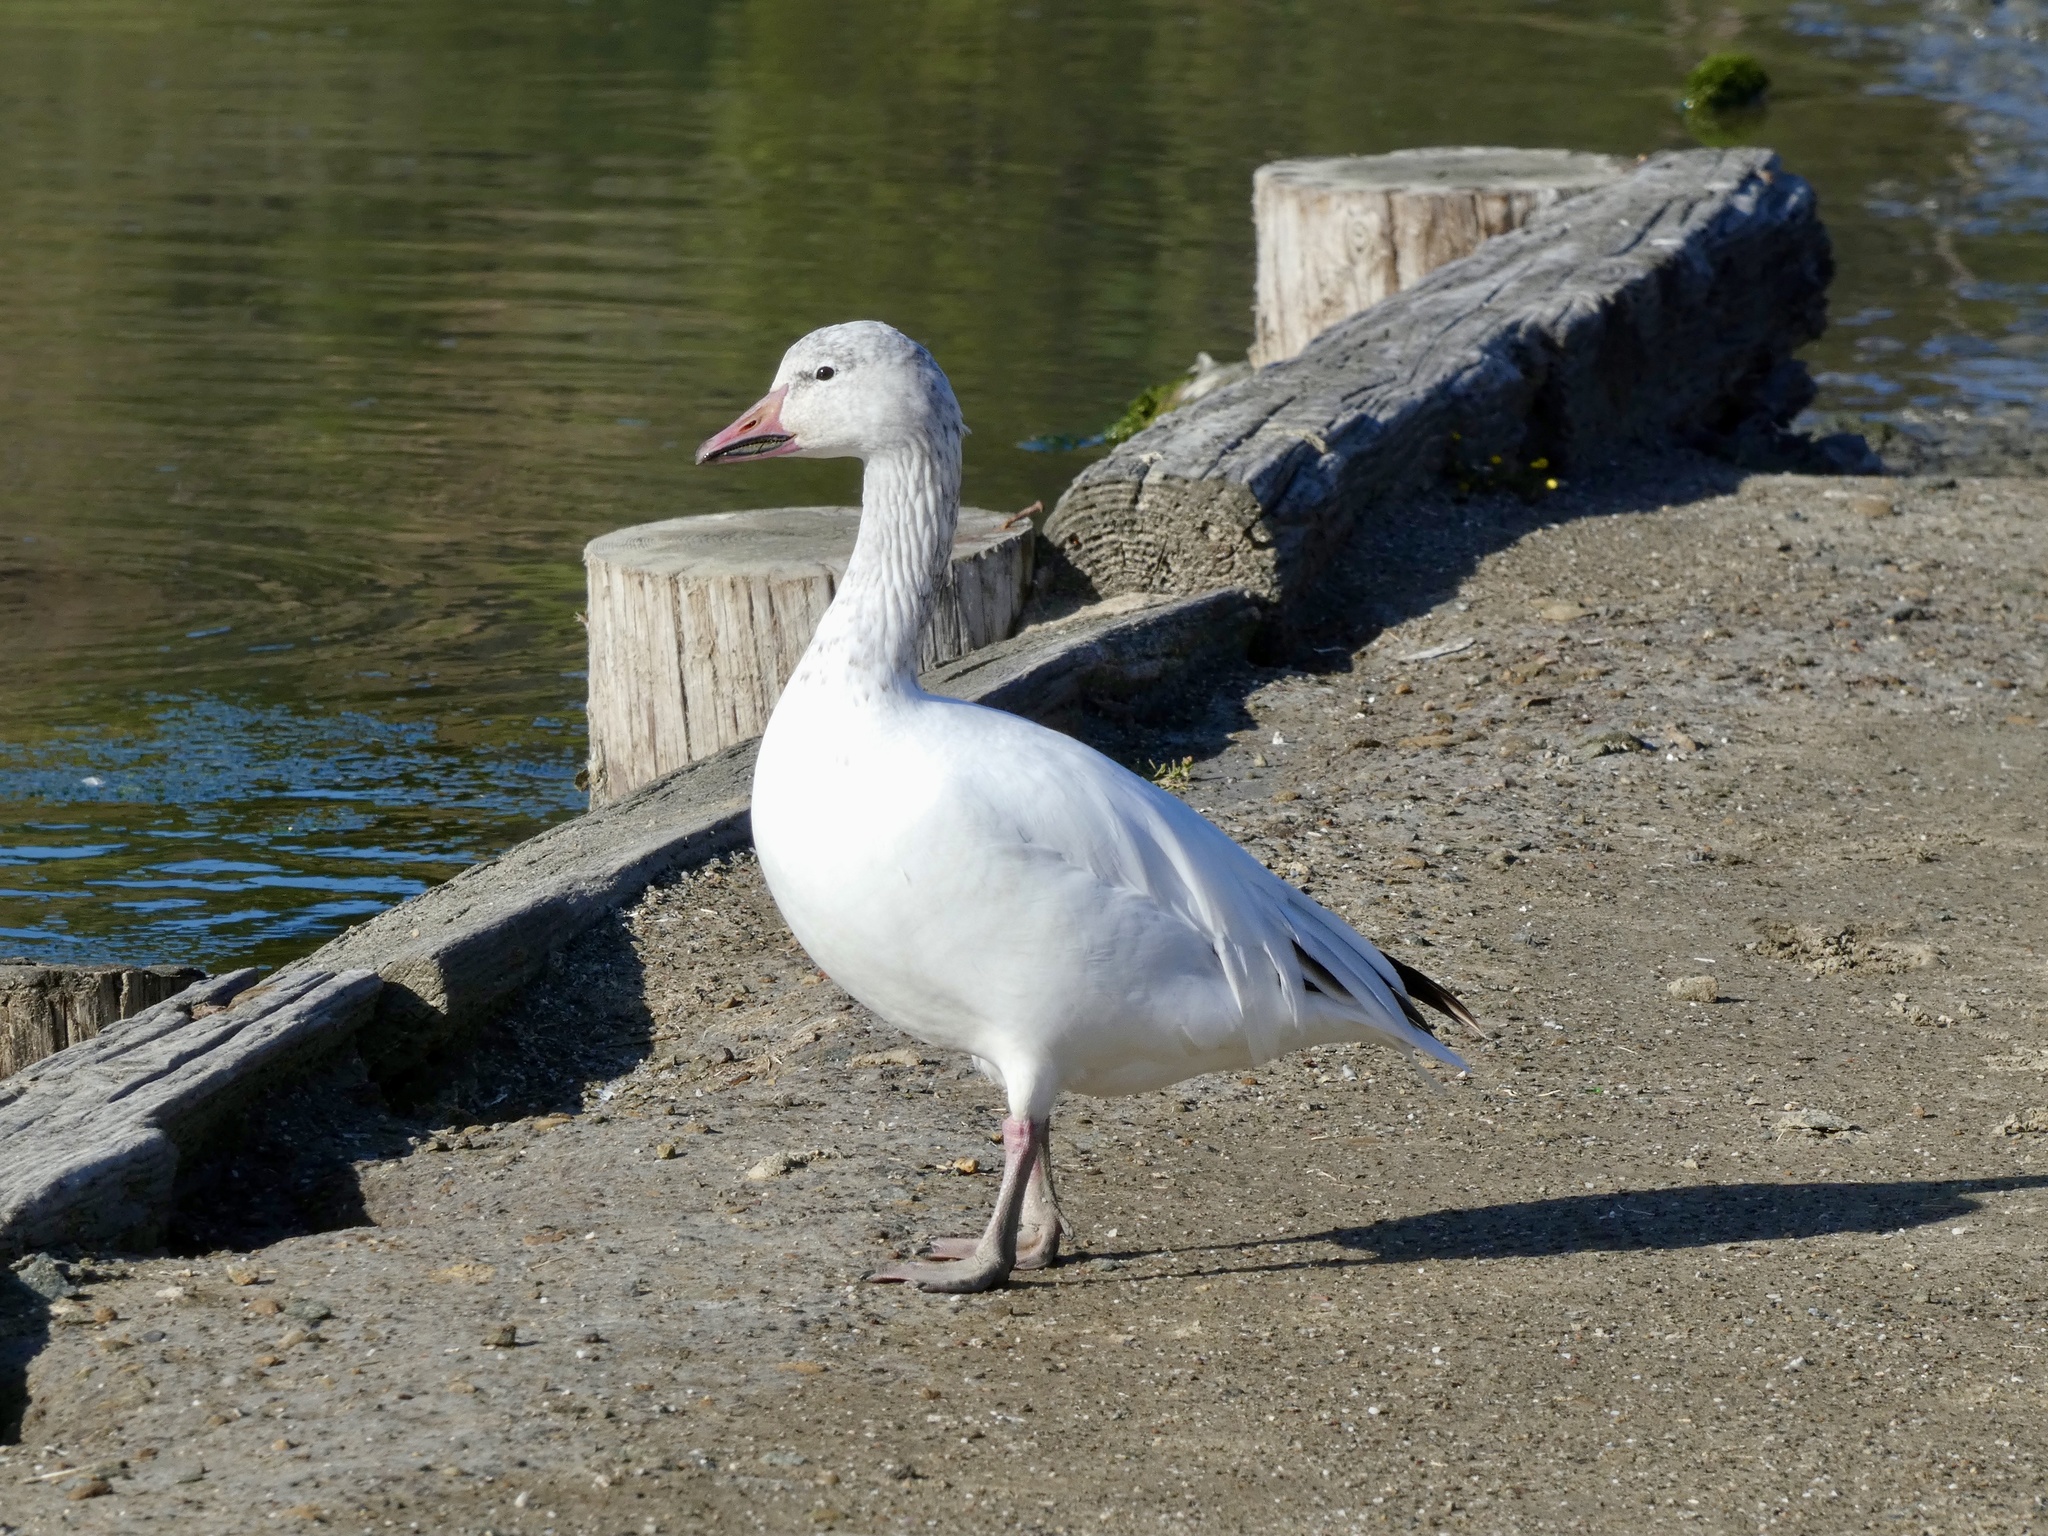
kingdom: Animalia
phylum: Chordata
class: Aves
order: Anseriformes
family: Anatidae
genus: Anser
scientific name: Anser caerulescens
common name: Snow goose
